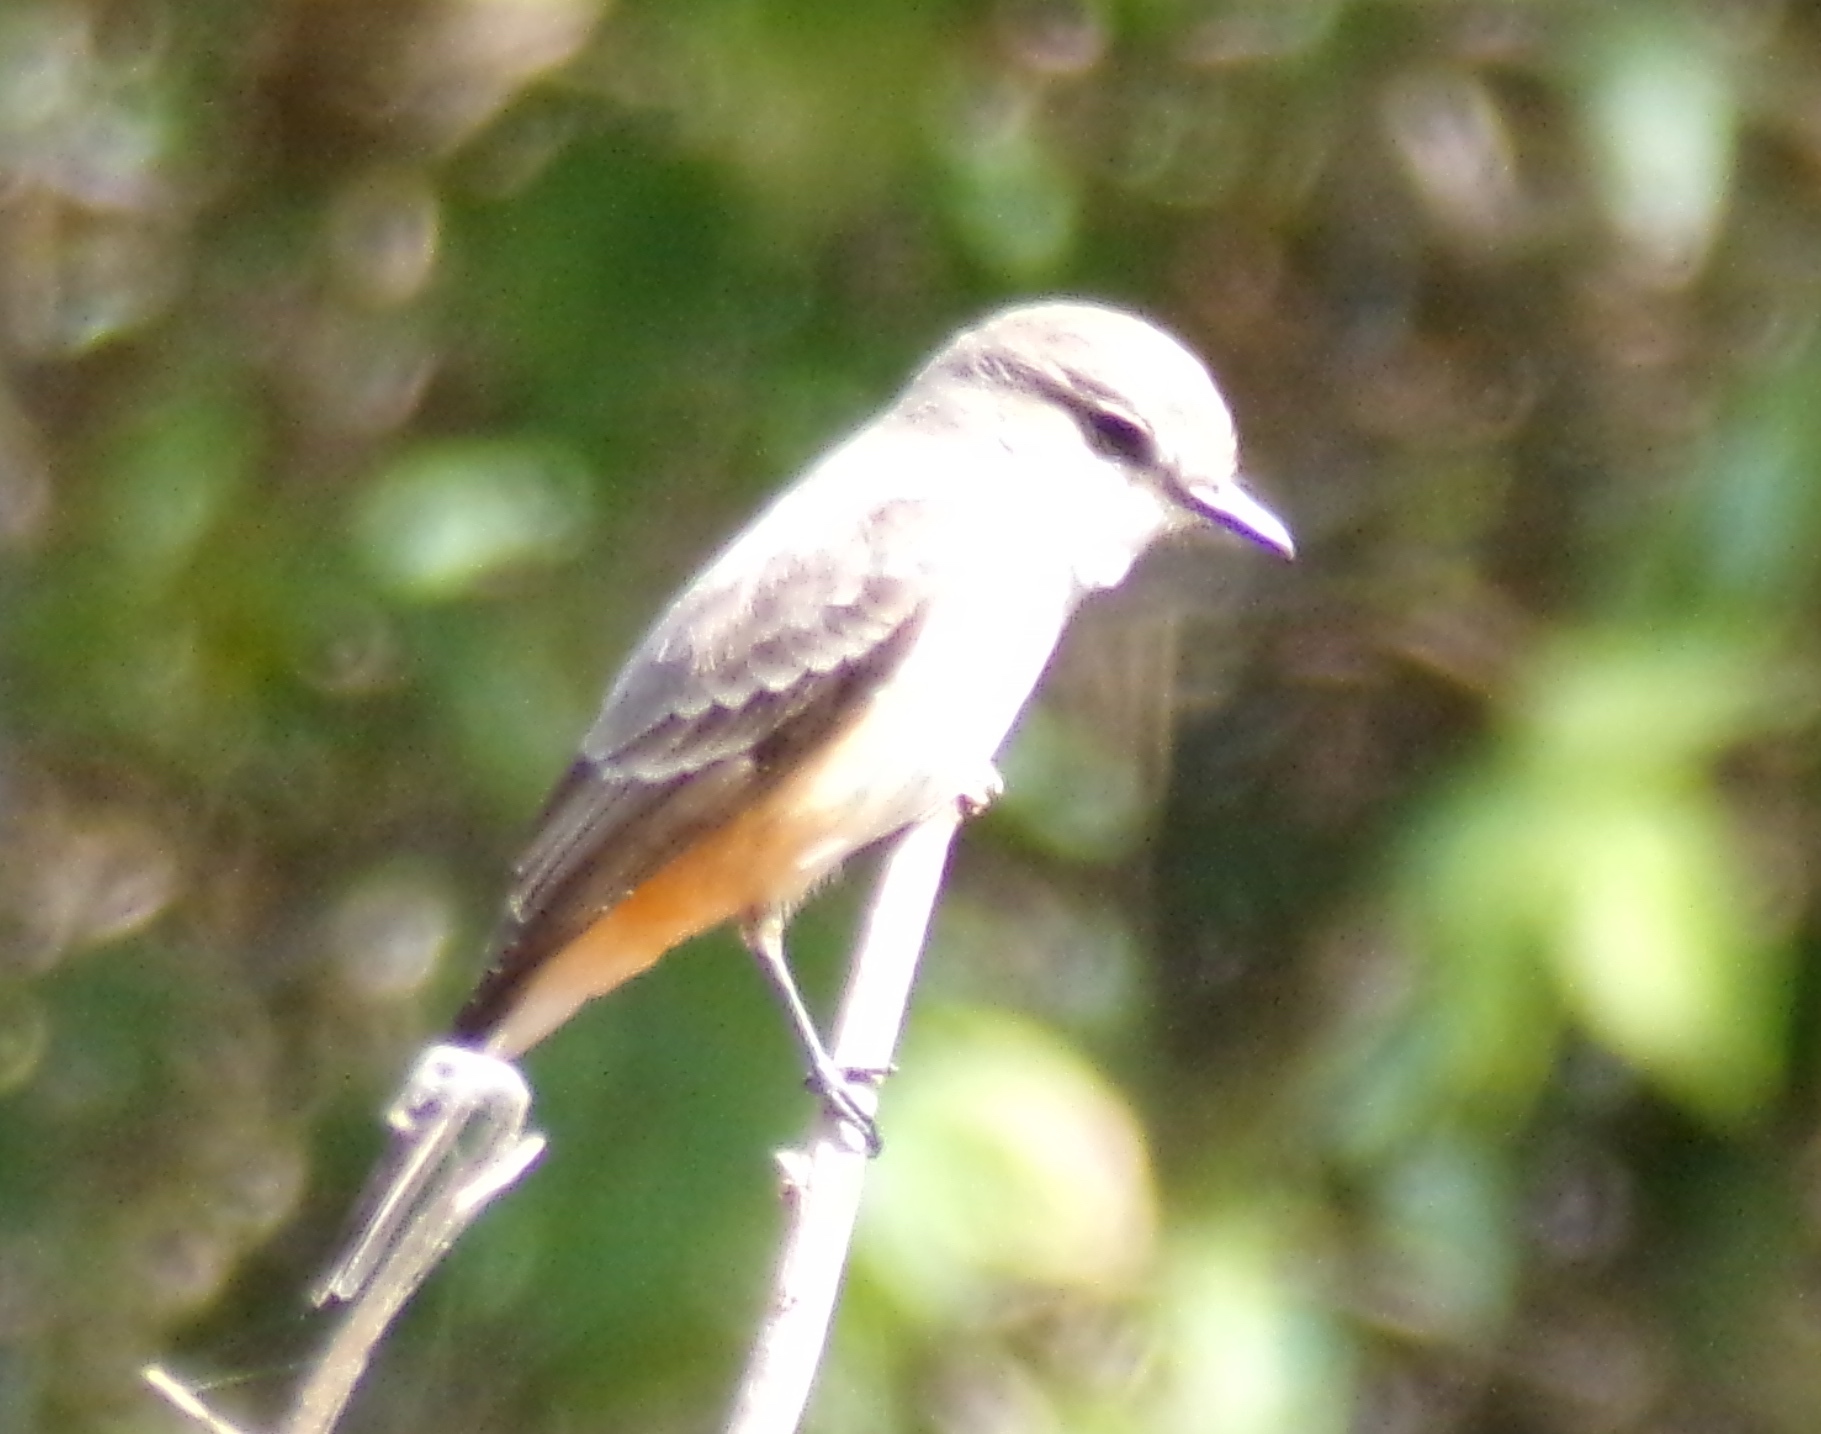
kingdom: Animalia
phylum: Chordata
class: Aves
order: Passeriformes
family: Tyrannidae
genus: Pyrocephalus
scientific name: Pyrocephalus rubinus
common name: Vermilion flycatcher
